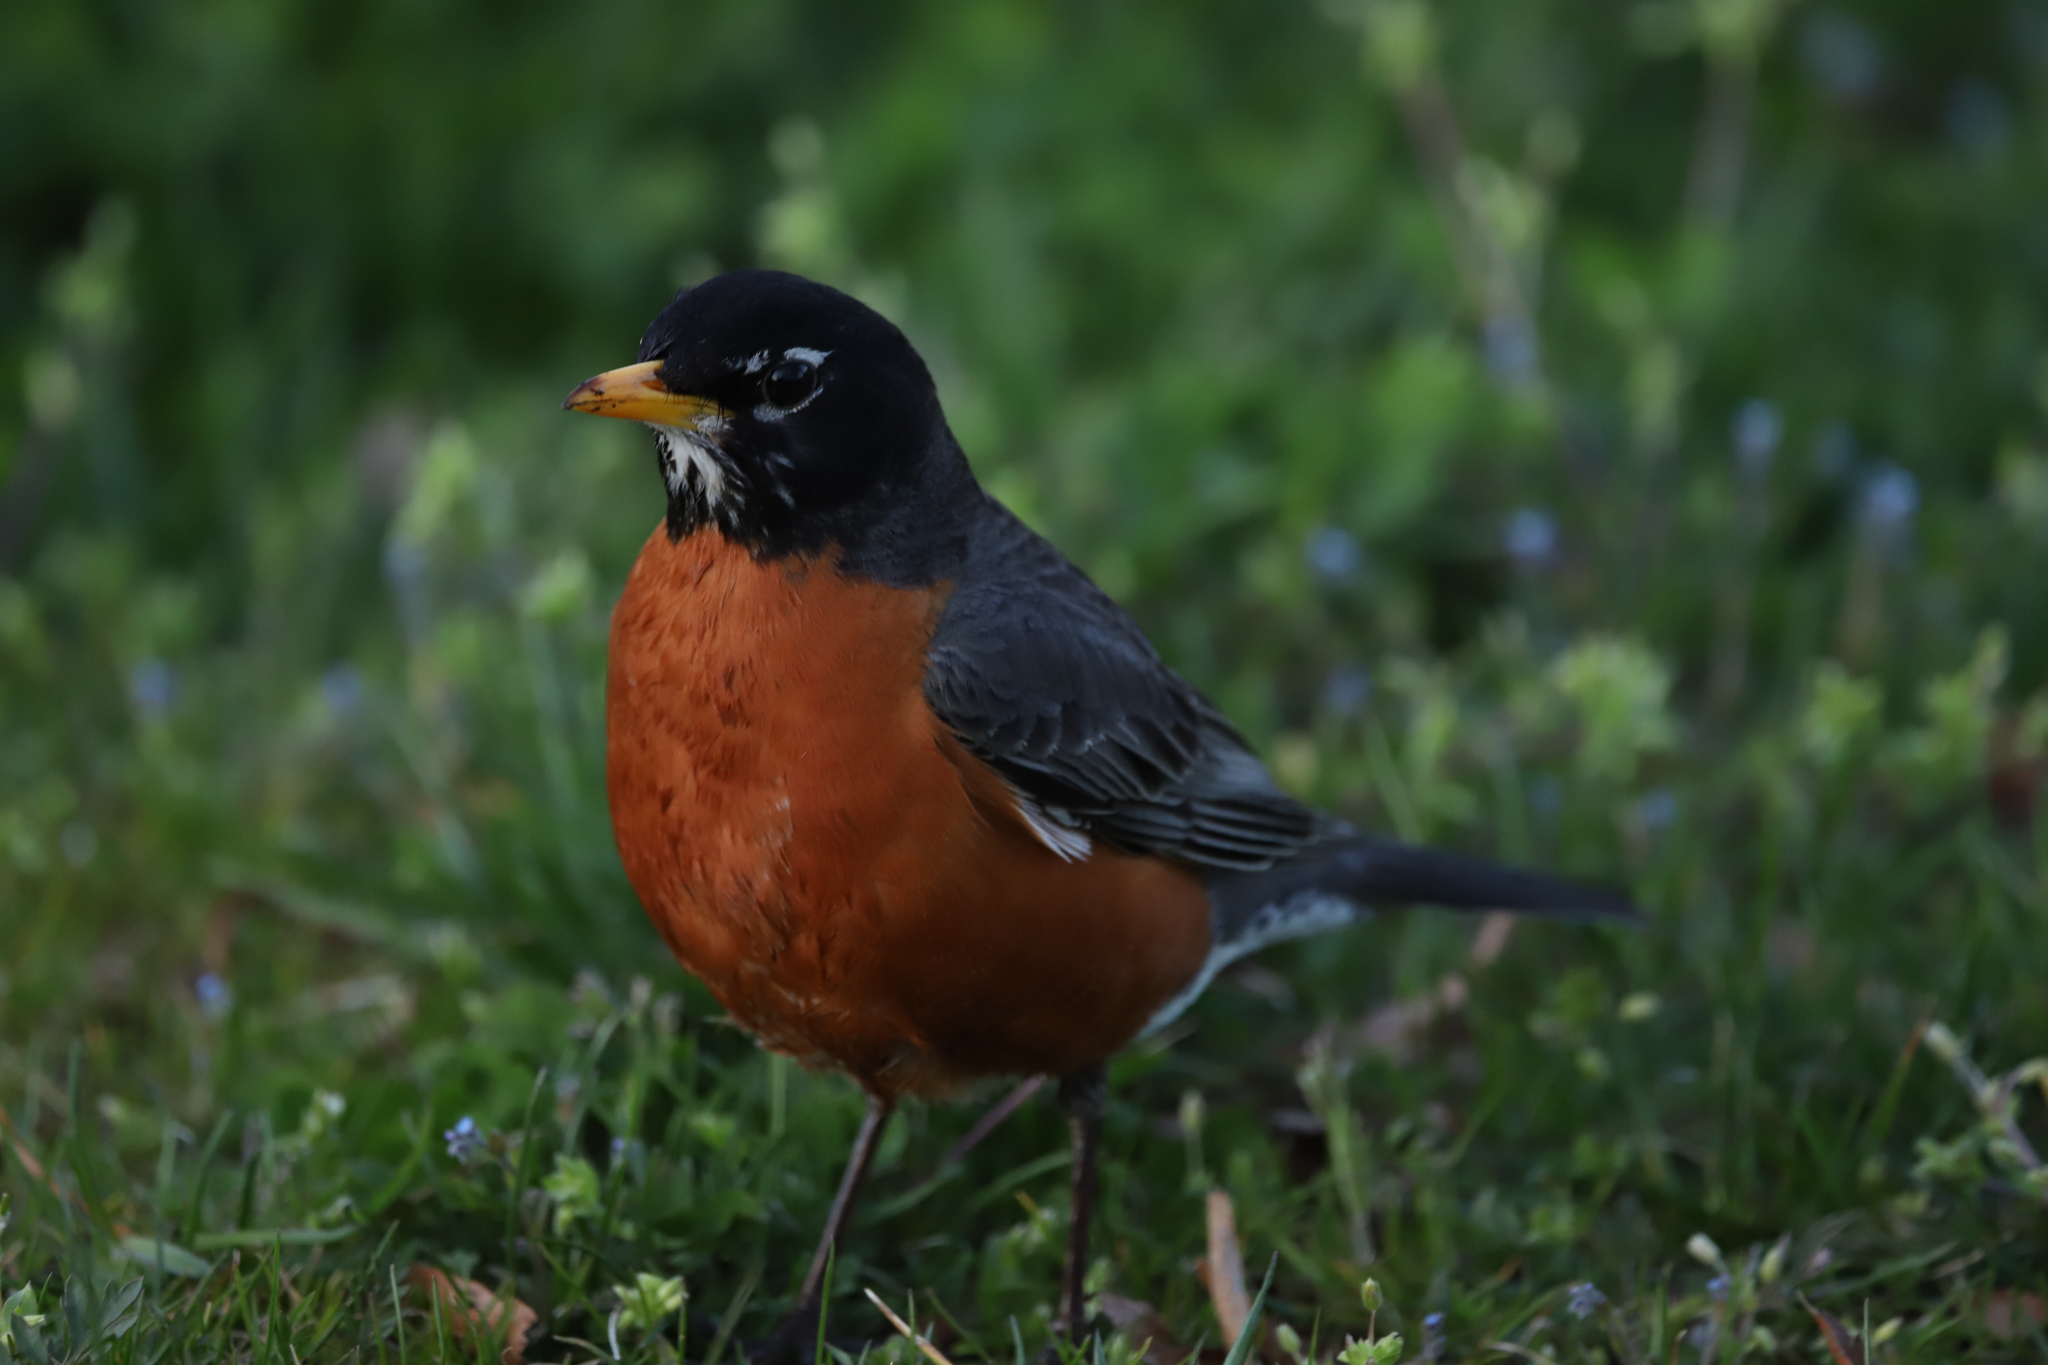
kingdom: Animalia
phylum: Chordata
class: Aves
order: Passeriformes
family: Turdidae
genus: Turdus
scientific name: Turdus migratorius
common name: American robin
